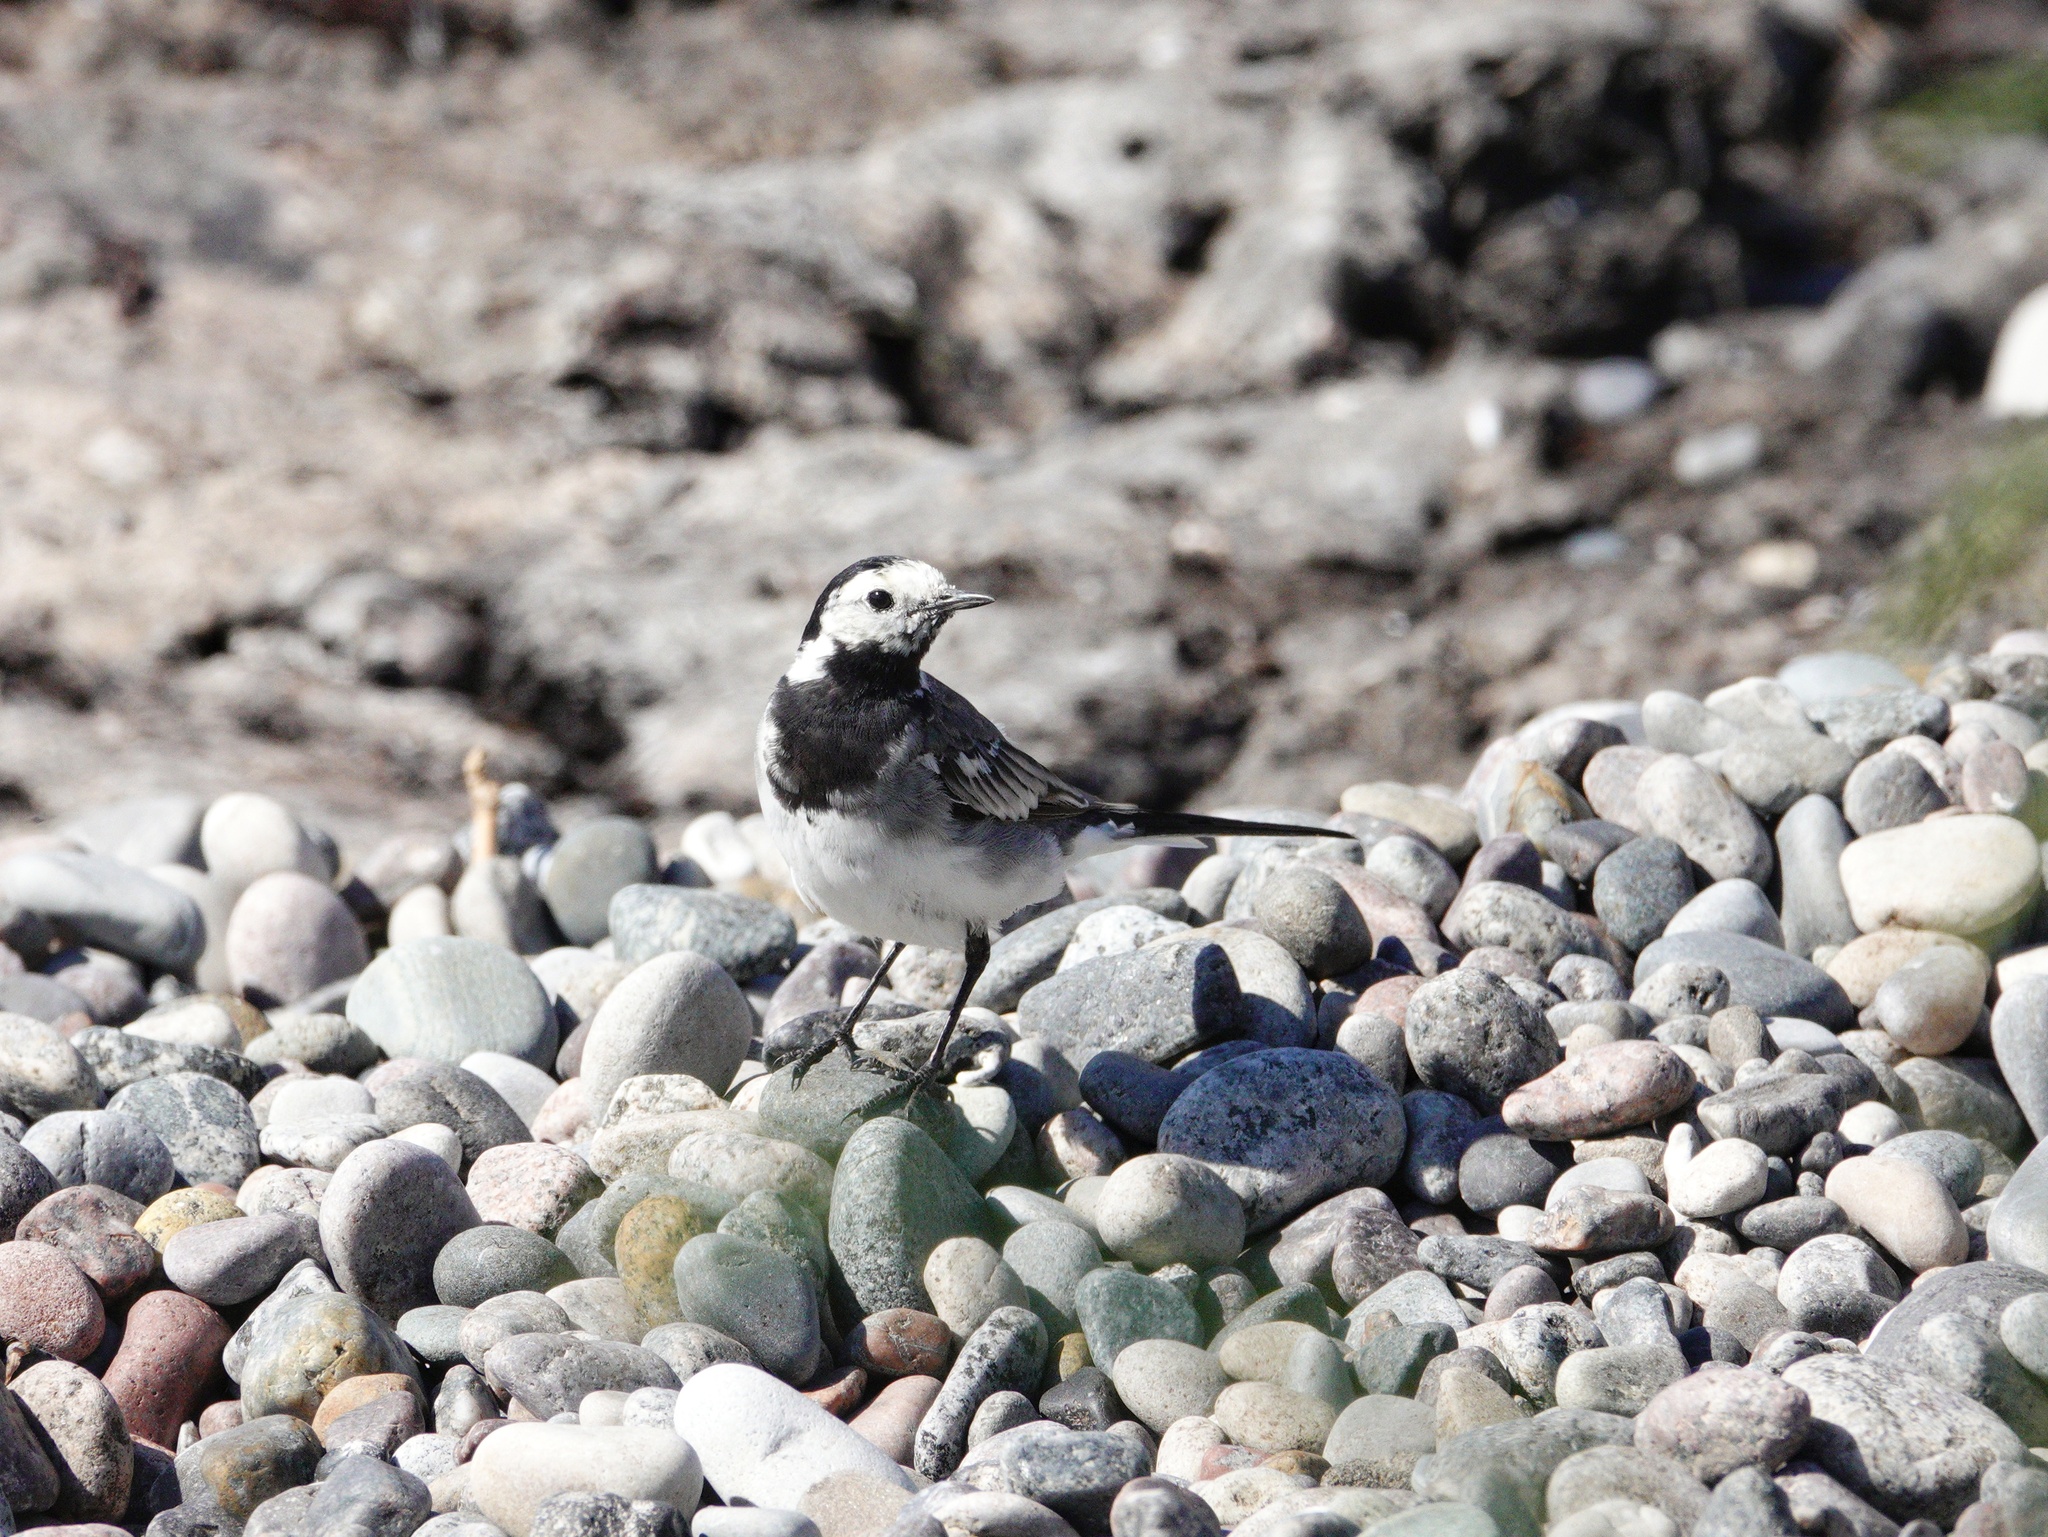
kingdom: Animalia
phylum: Chordata
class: Aves
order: Passeriformes
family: Motacillidae
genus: Motacilla
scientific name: Motacilla alba
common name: White wagtail
